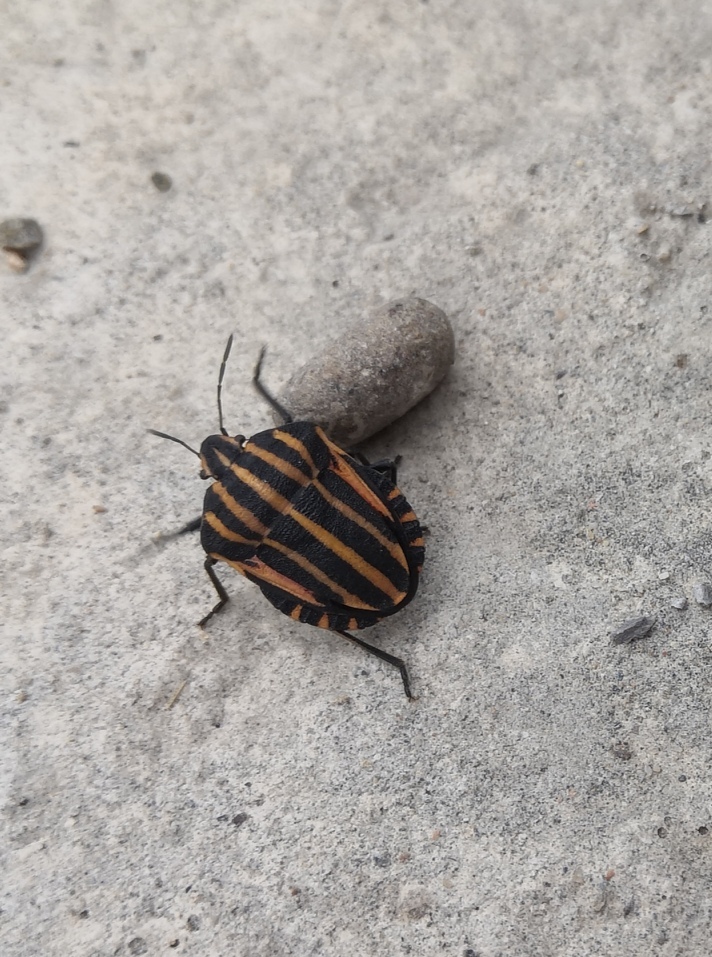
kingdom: Animalia
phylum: Arthropoda
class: Insecta
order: Hemiptera
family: Pentatomidae
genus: Graphosoma
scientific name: Graphosoma italicum
